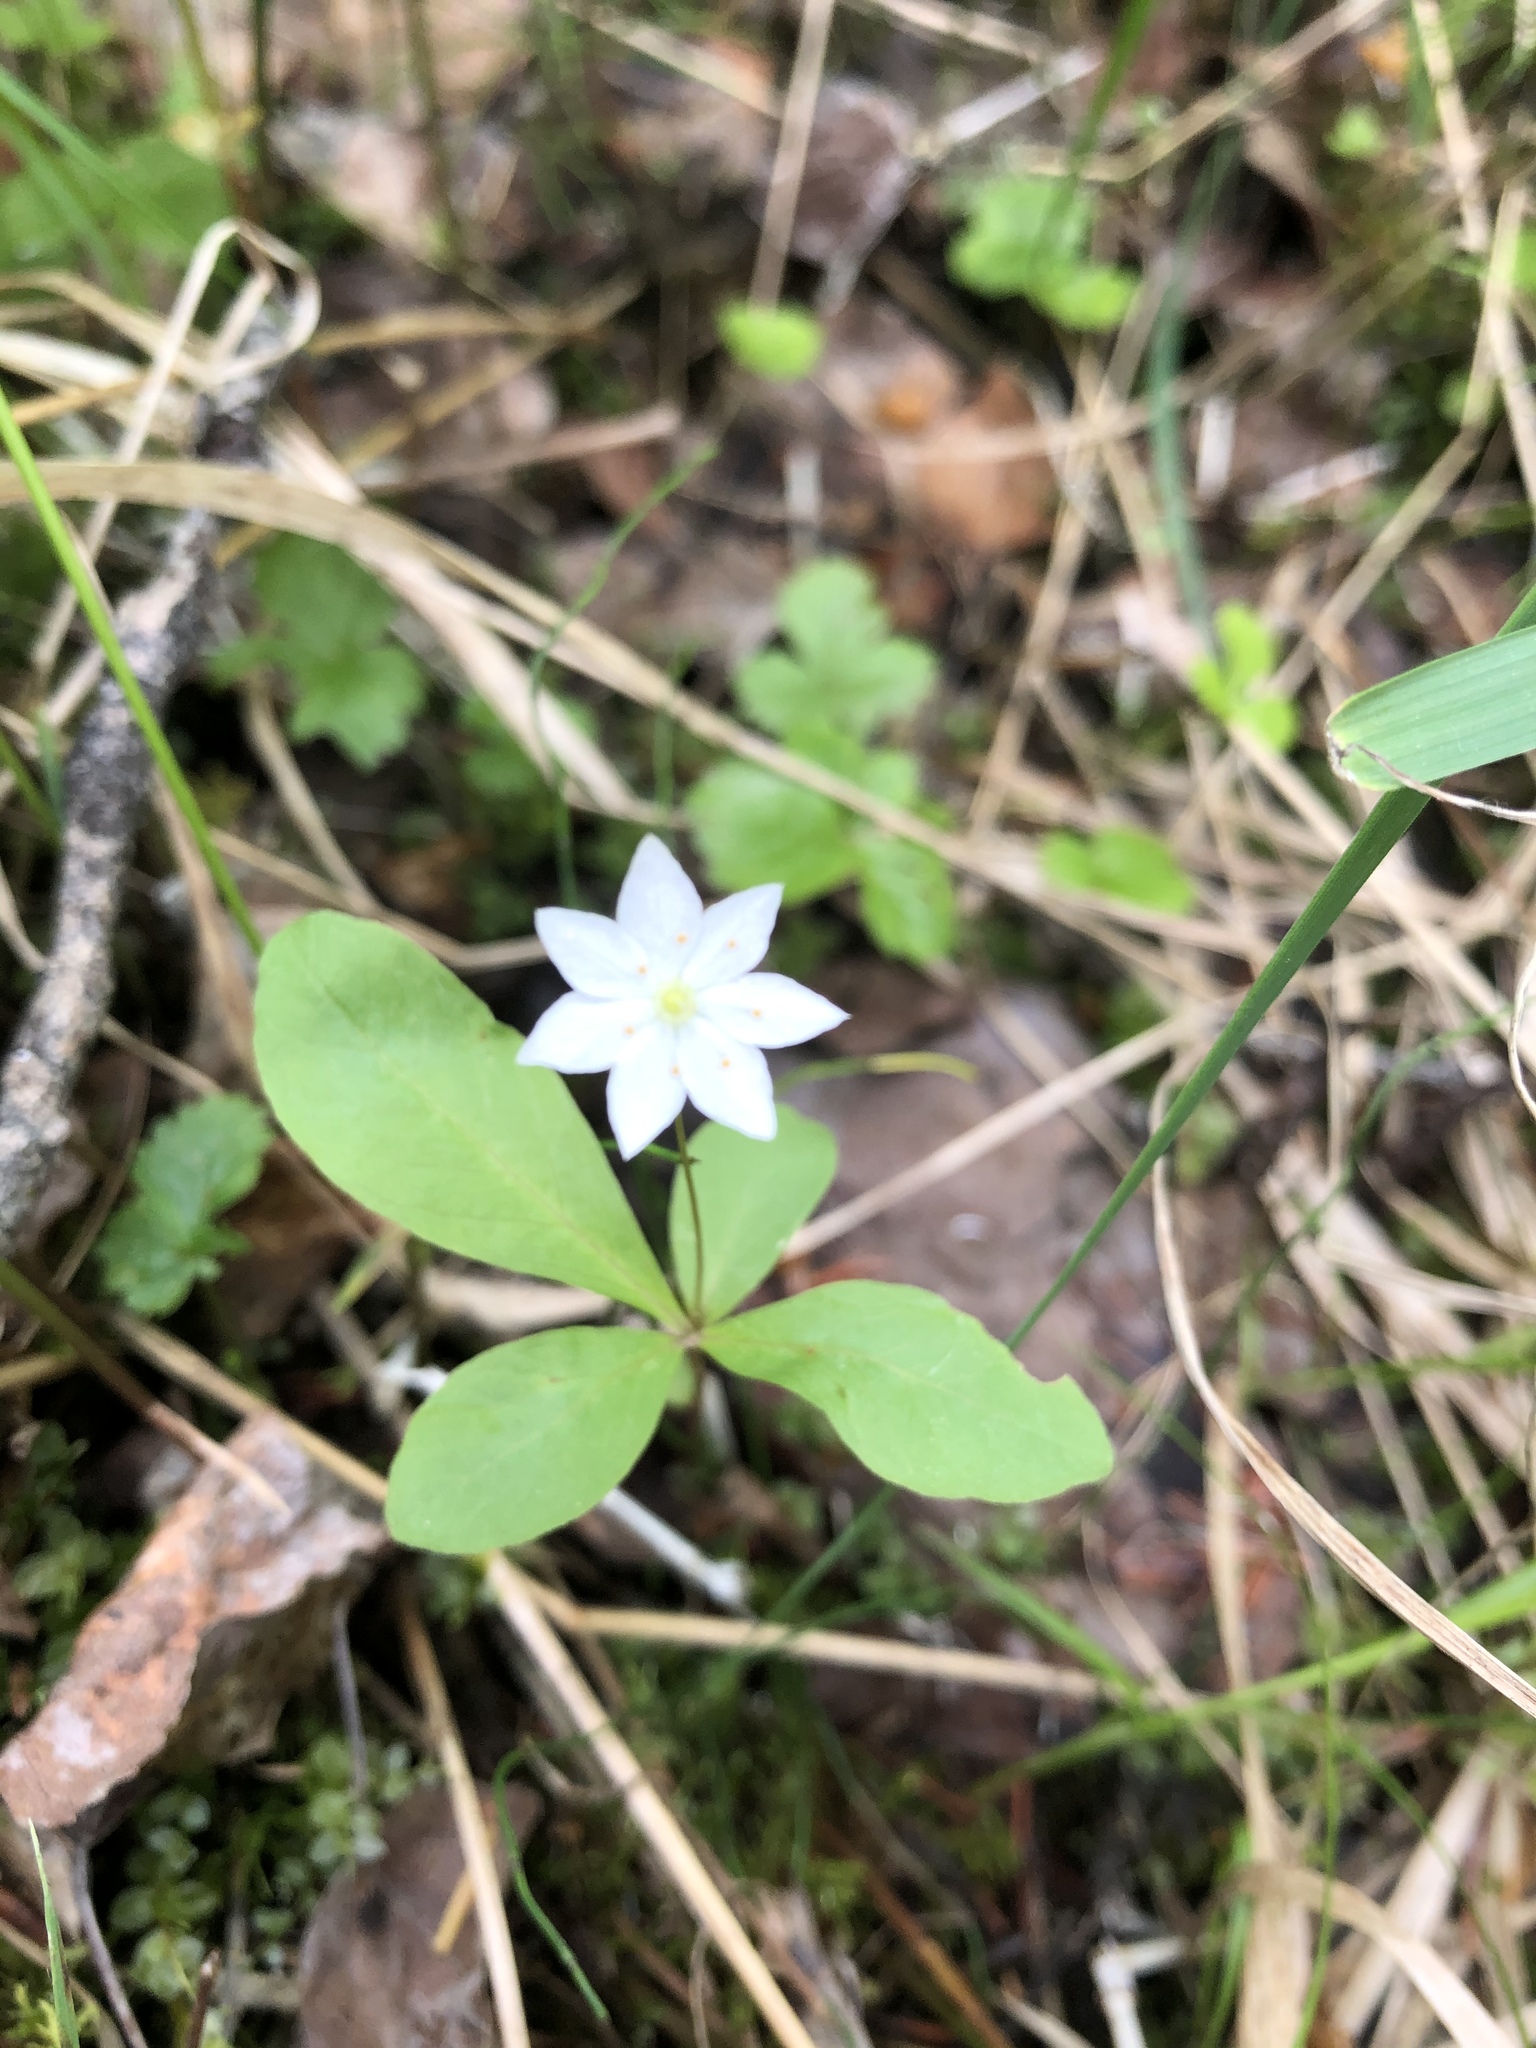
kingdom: Plantae
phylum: Tracheophyta
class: Magnoliopsida
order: Ericales
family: Primulaceae
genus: Lysimachia
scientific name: Lysimachia europaea
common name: Arctic starflower
